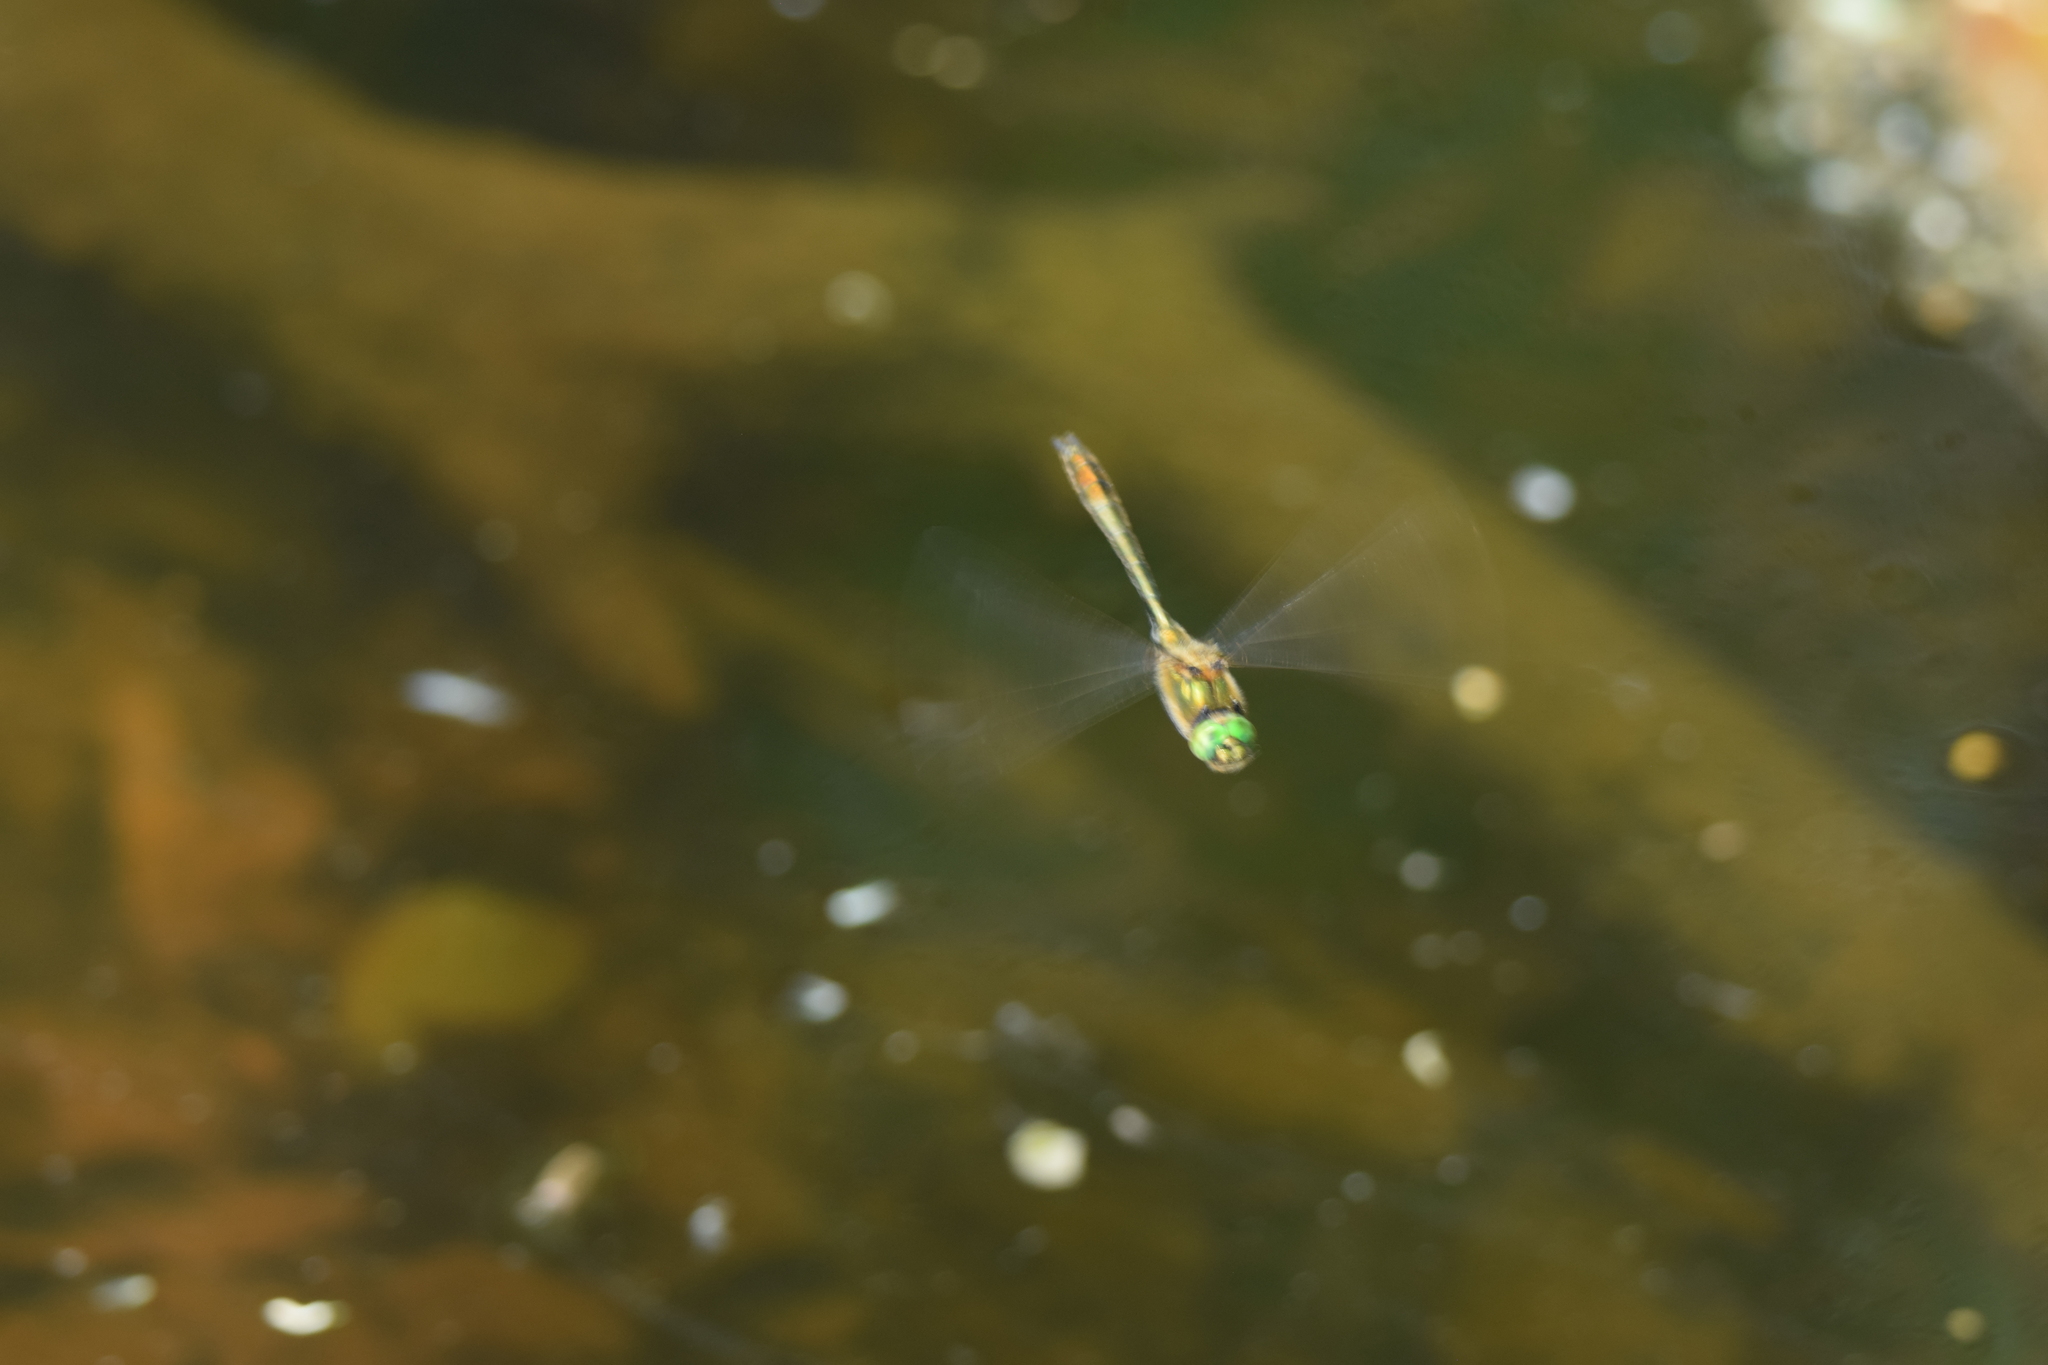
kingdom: Animalia
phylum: Arthropoda
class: Insecta
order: Odonata
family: Corduliidae
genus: Cordulia
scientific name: Cordulia aenea
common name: Downy emerald
